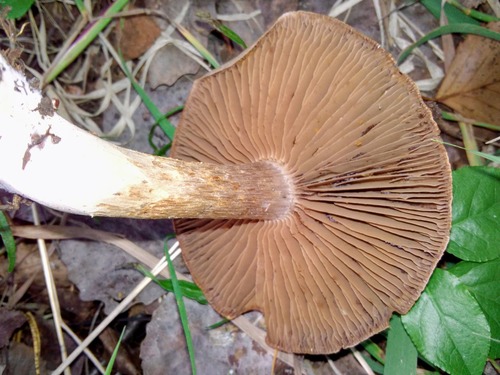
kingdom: Fungi
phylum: Basidiomycota
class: Agaricomycetes
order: Agaricales
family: Cortinariaceae
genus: Cortinarius
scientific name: Cortinarius
